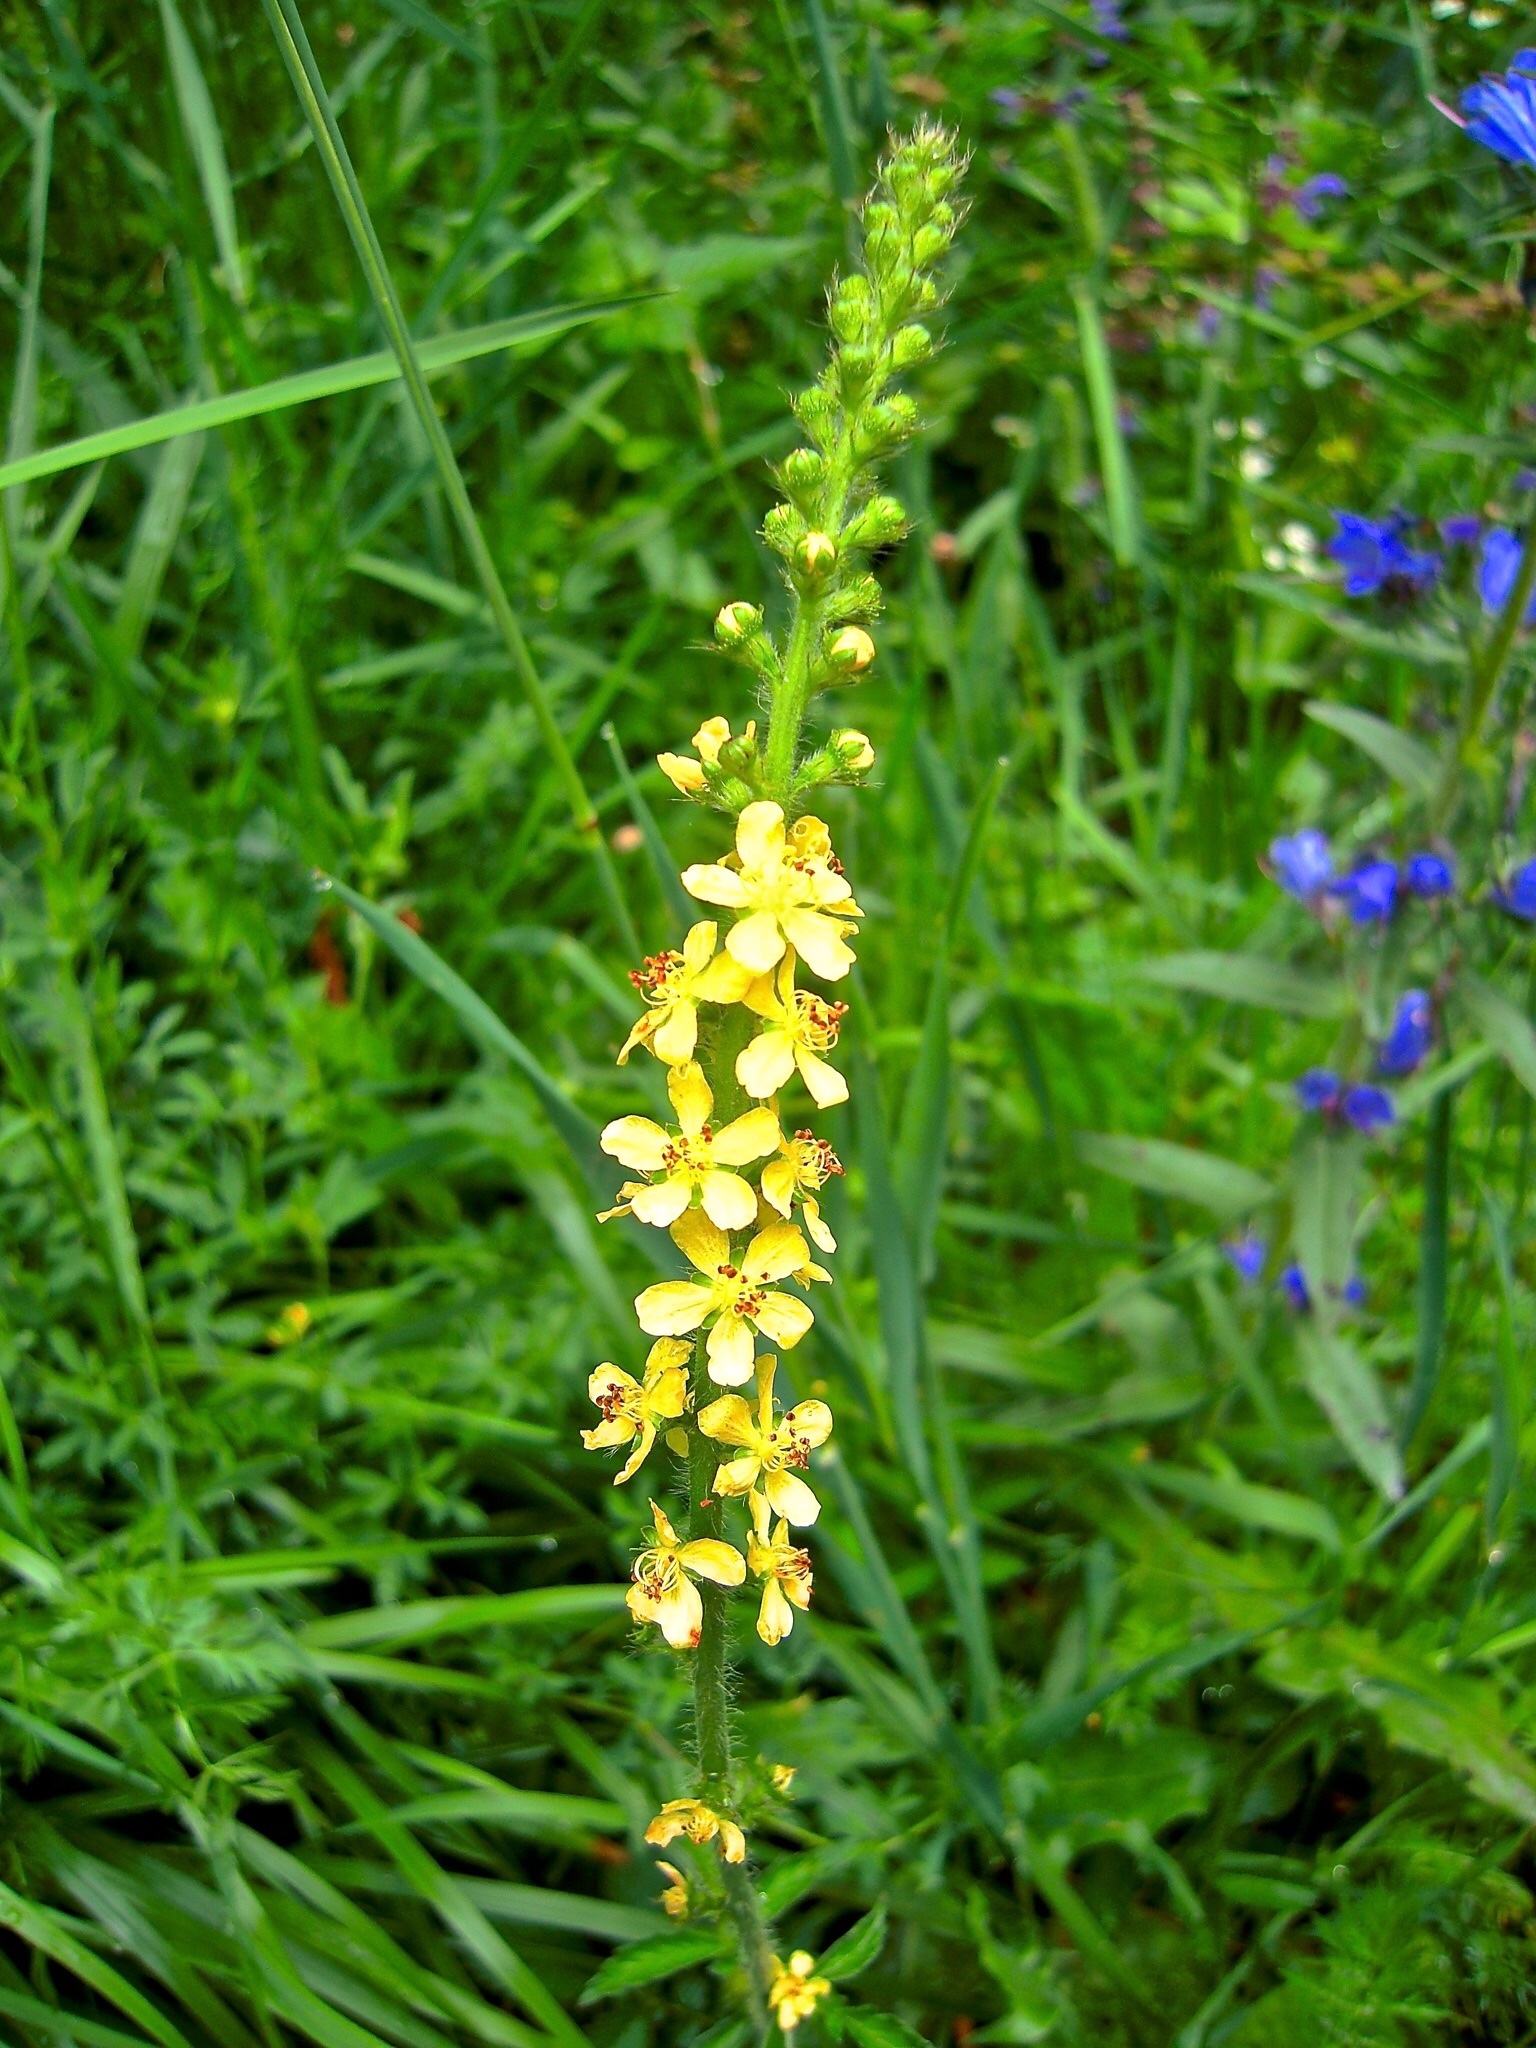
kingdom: Plantae
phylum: Tracheophyta
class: Magnoliopsida
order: Rosales
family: Rosaceae
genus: Agrimonia
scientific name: Agrimonia eupatoria
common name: Agrimony
